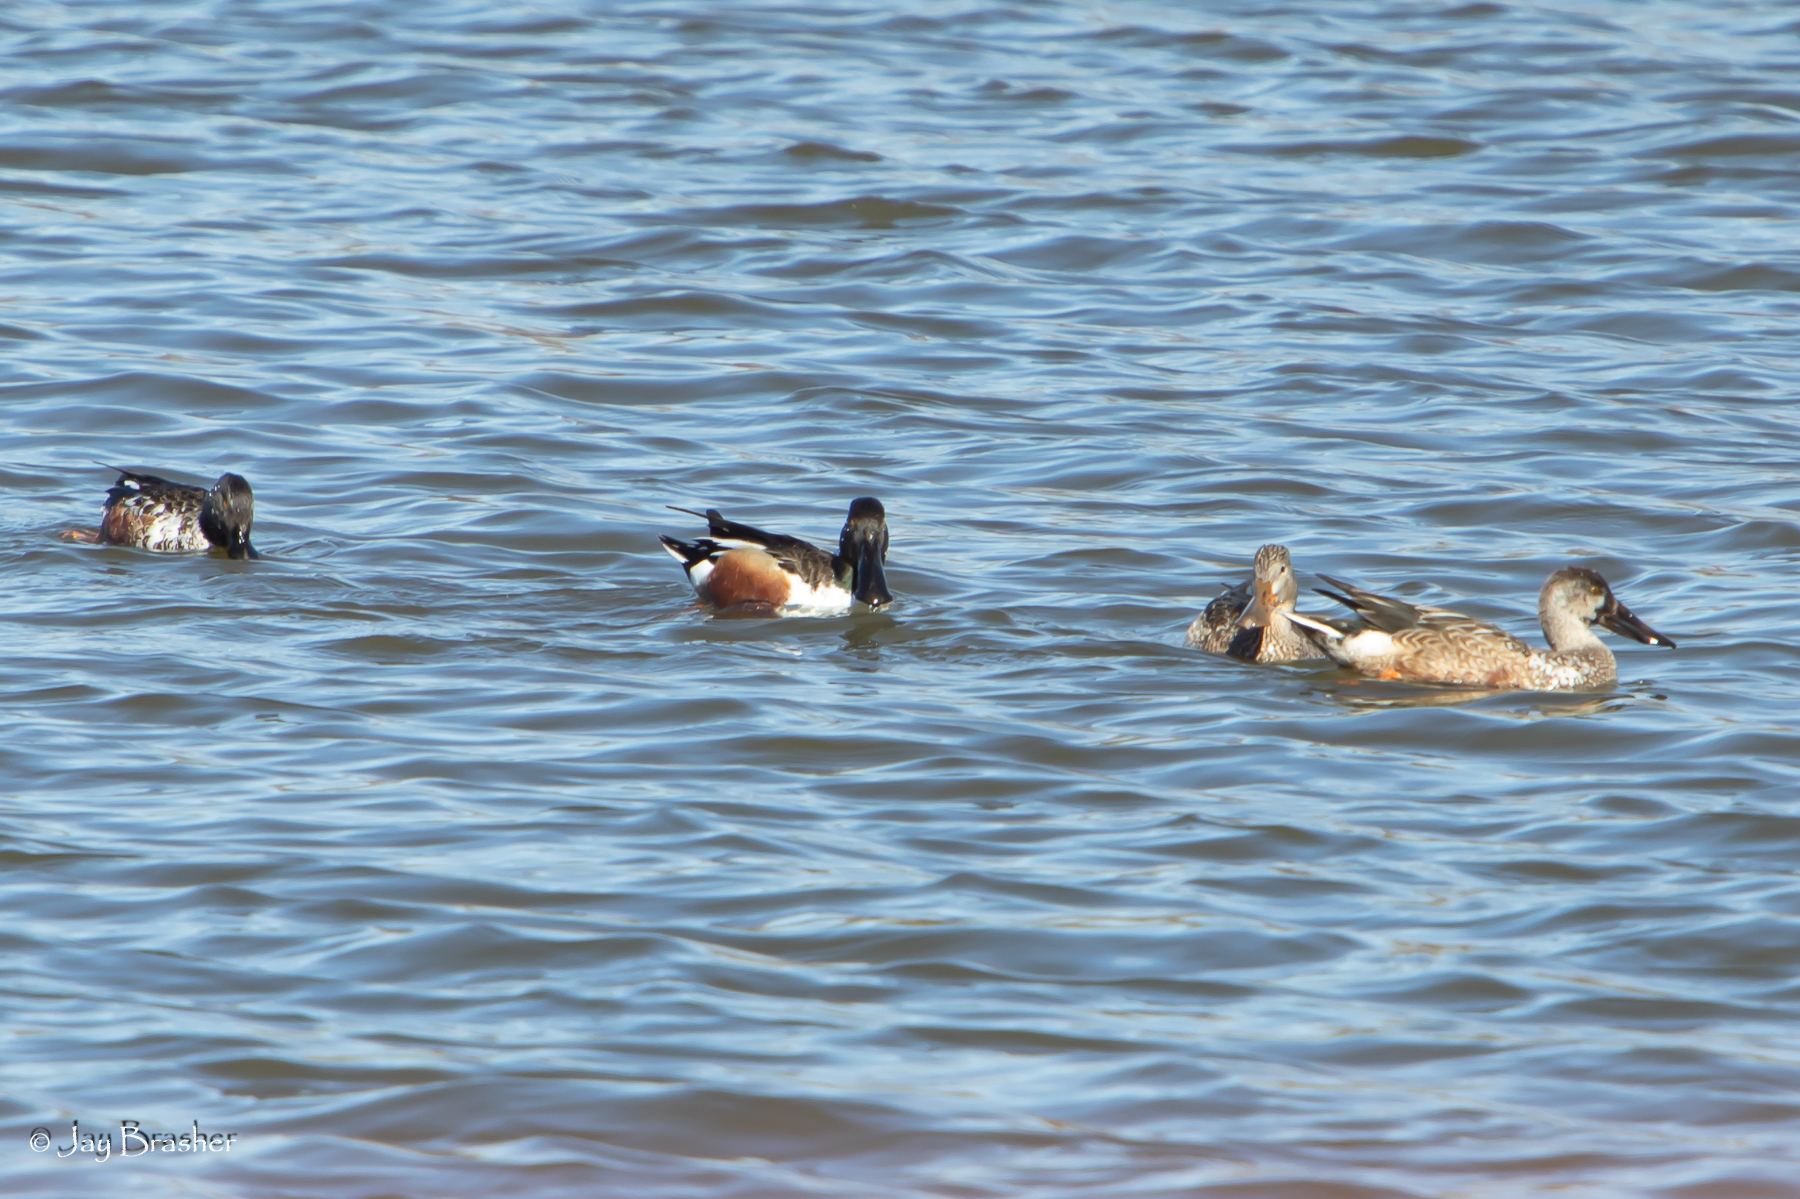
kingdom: Animalia
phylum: Chordata
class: Aves
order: Anseriformes
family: Anatidae
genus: Spatula
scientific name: Spatula clypeata
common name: Northern shoveler
